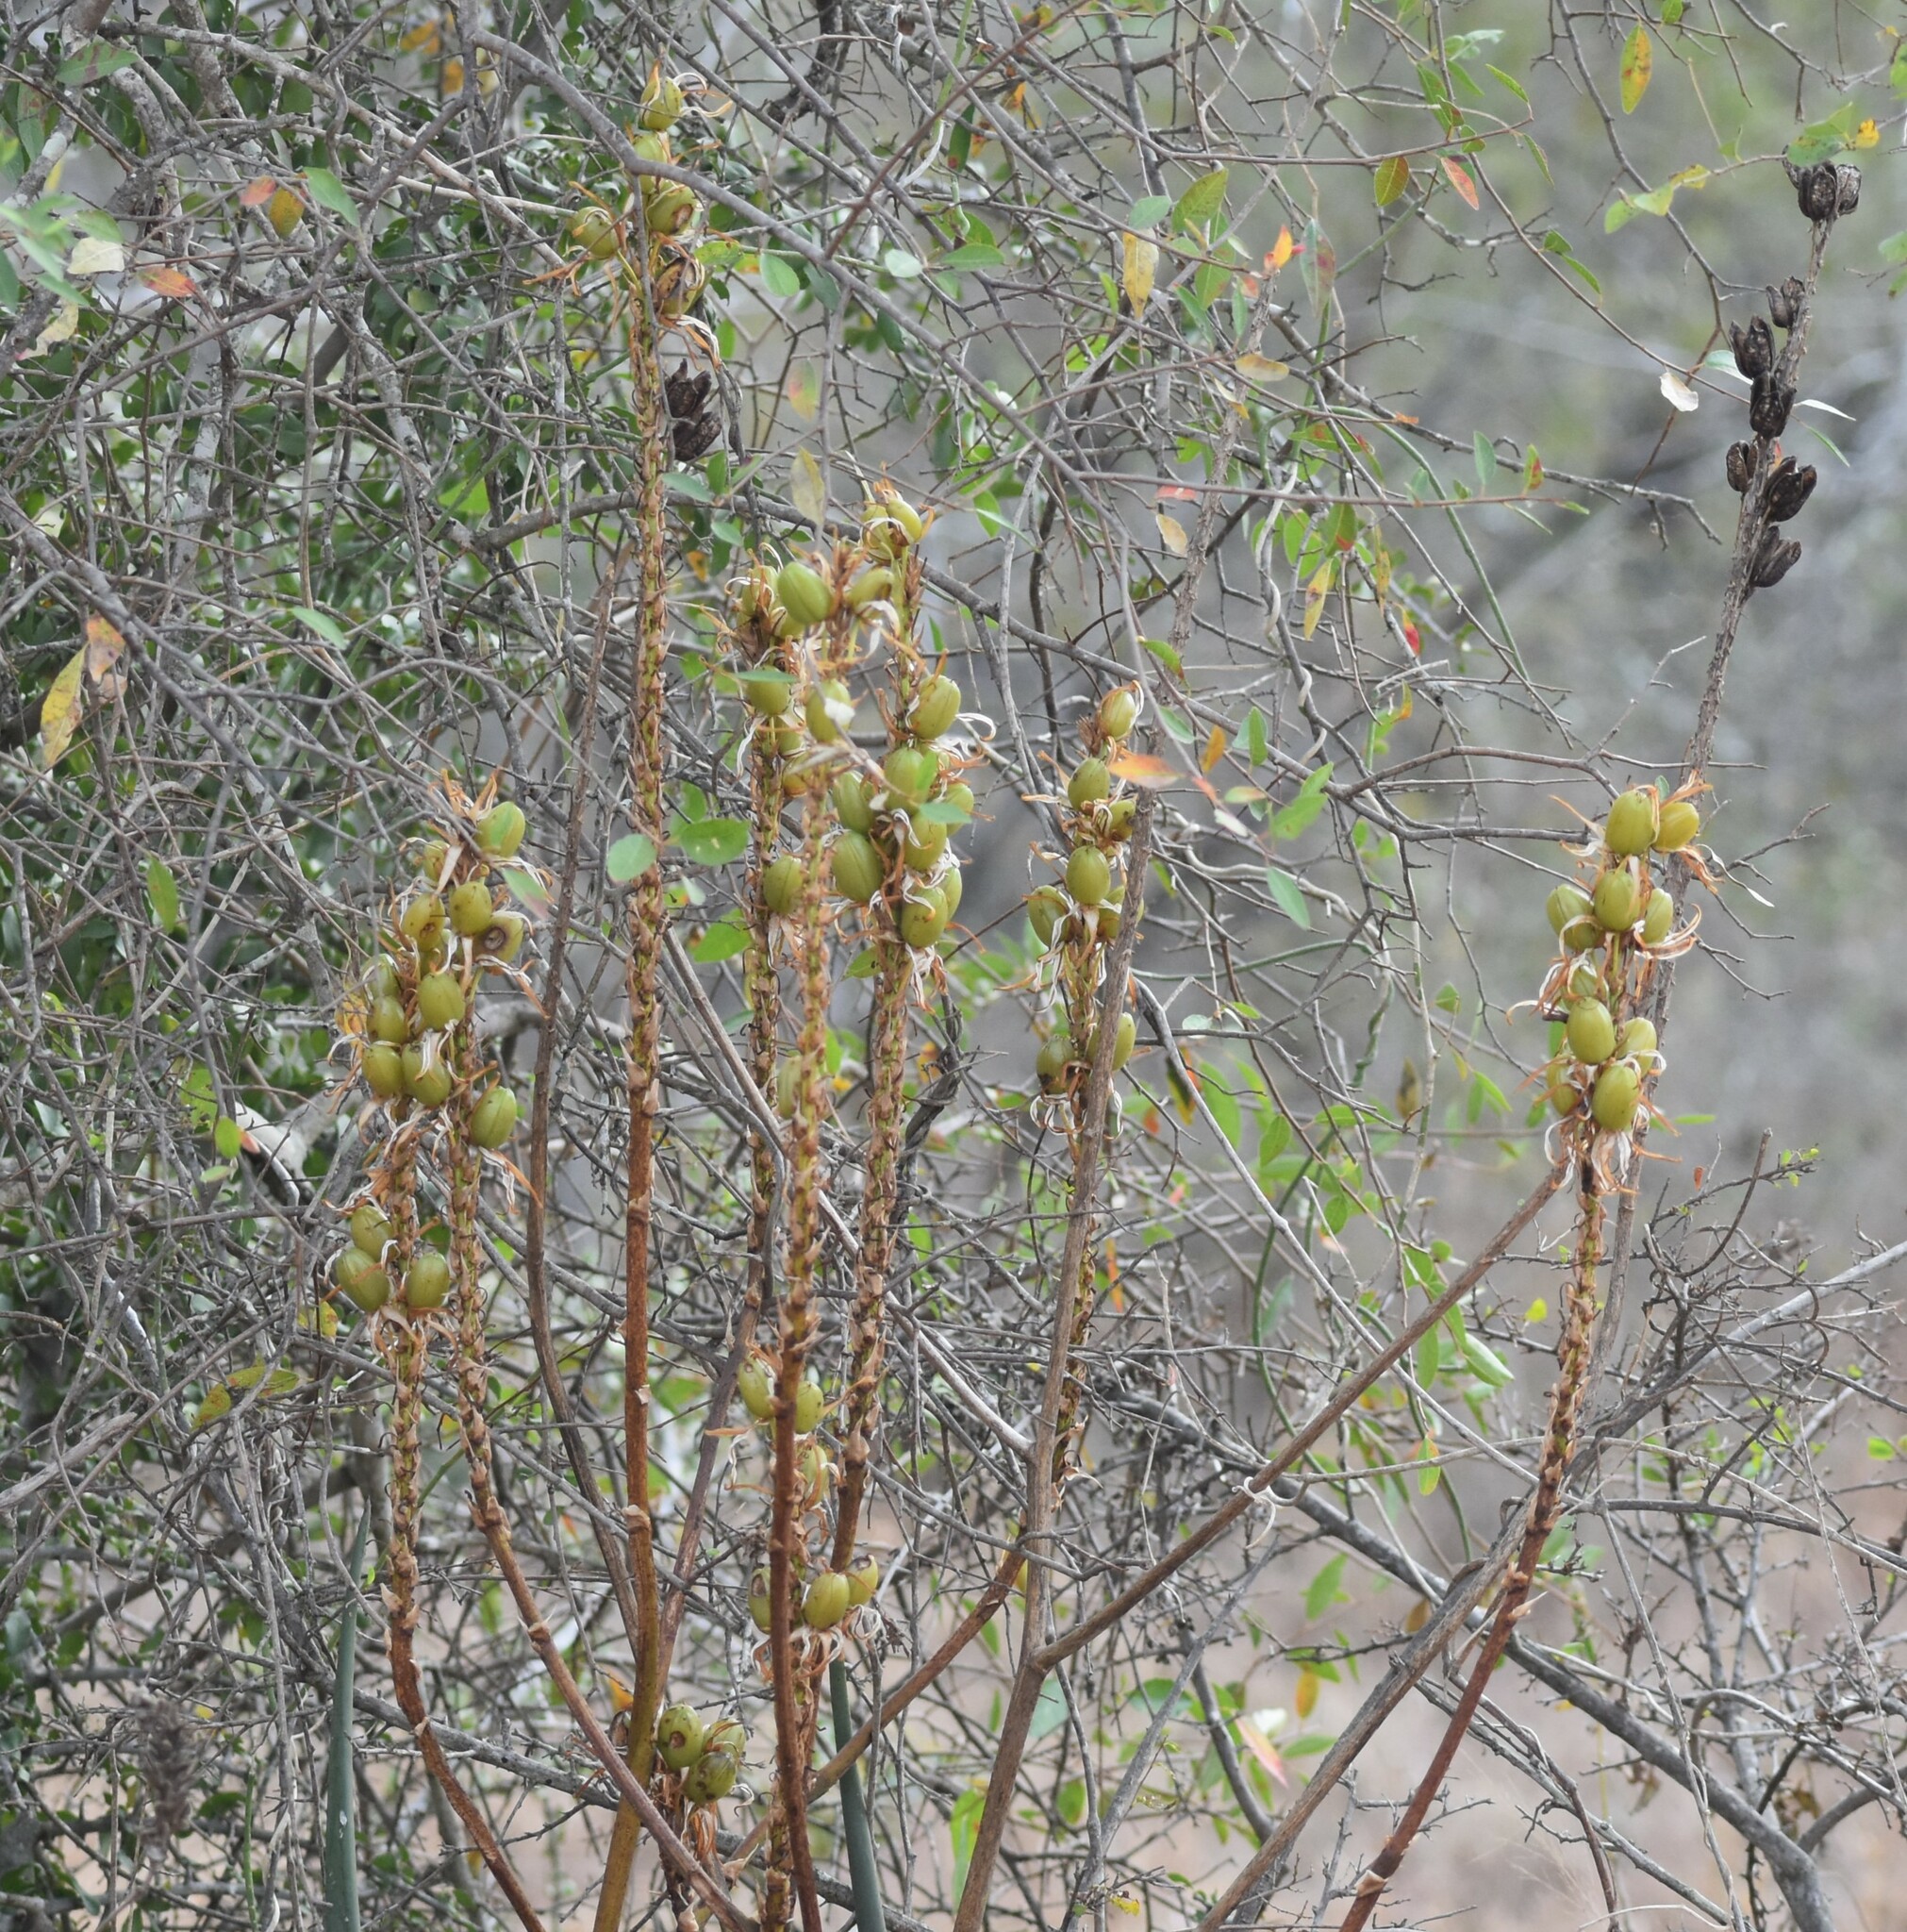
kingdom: Plantae
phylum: Tracheophyta
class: Liliopsida
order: Asparagales
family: Asphodelaceae
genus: Aloe
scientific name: Aloe pienaarii
